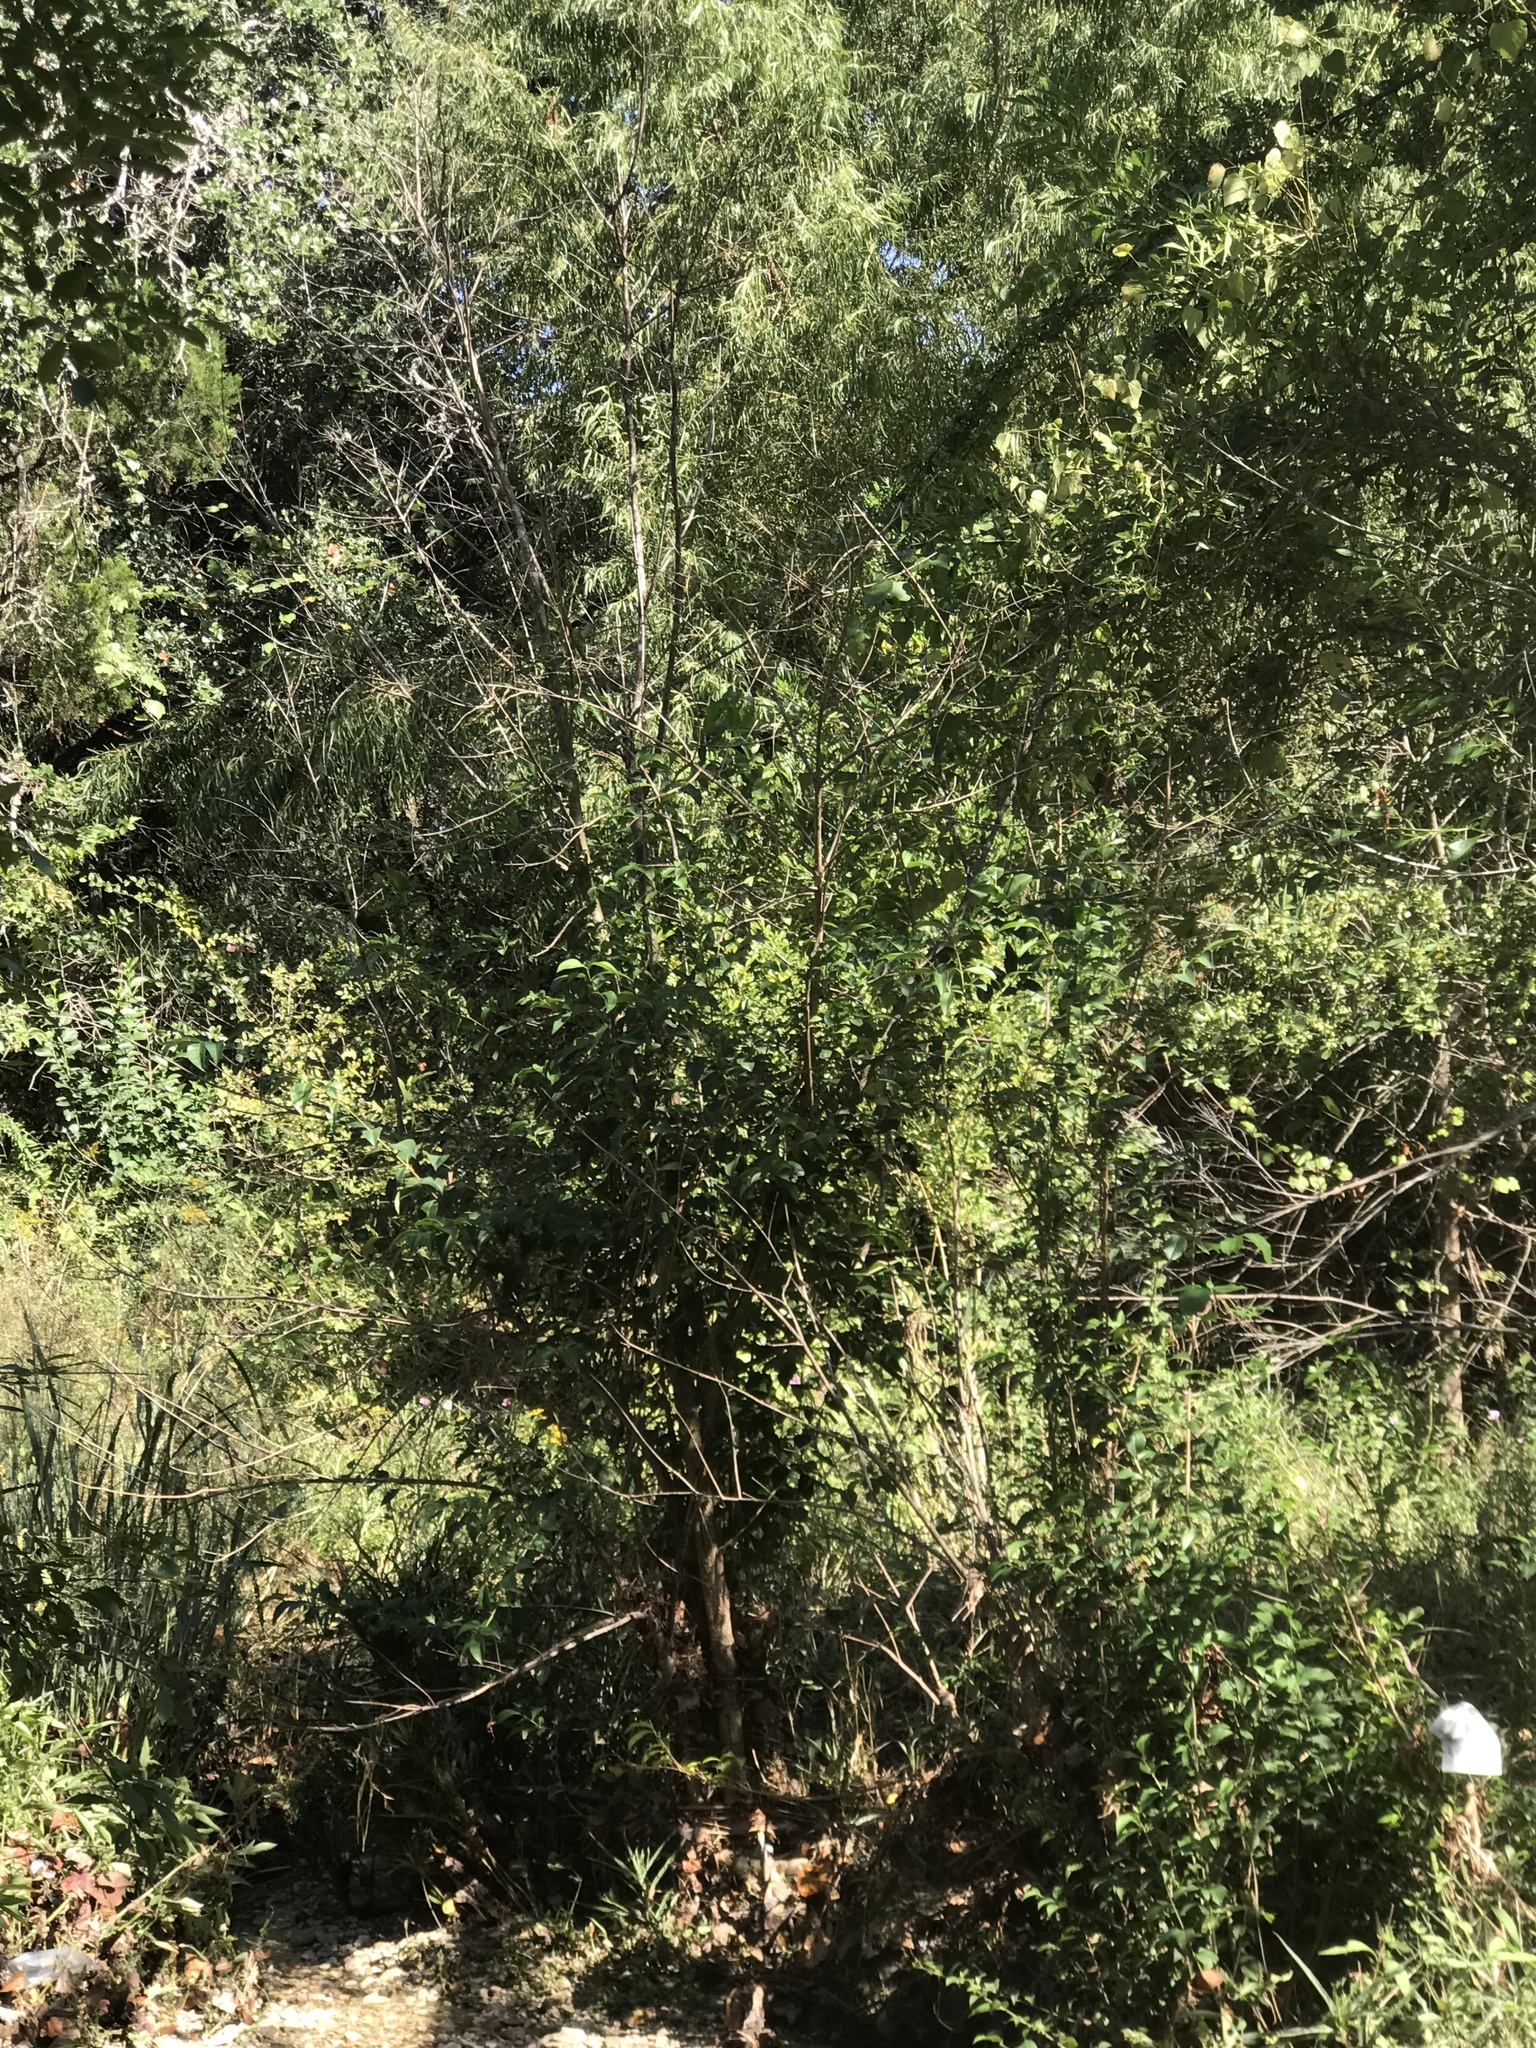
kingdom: Plantae
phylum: Tracheophyta
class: Magnoliopsida
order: Lamiales
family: Oleaceae
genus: Ligustrum
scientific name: Ligustrum lucidum
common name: Glossy privet
